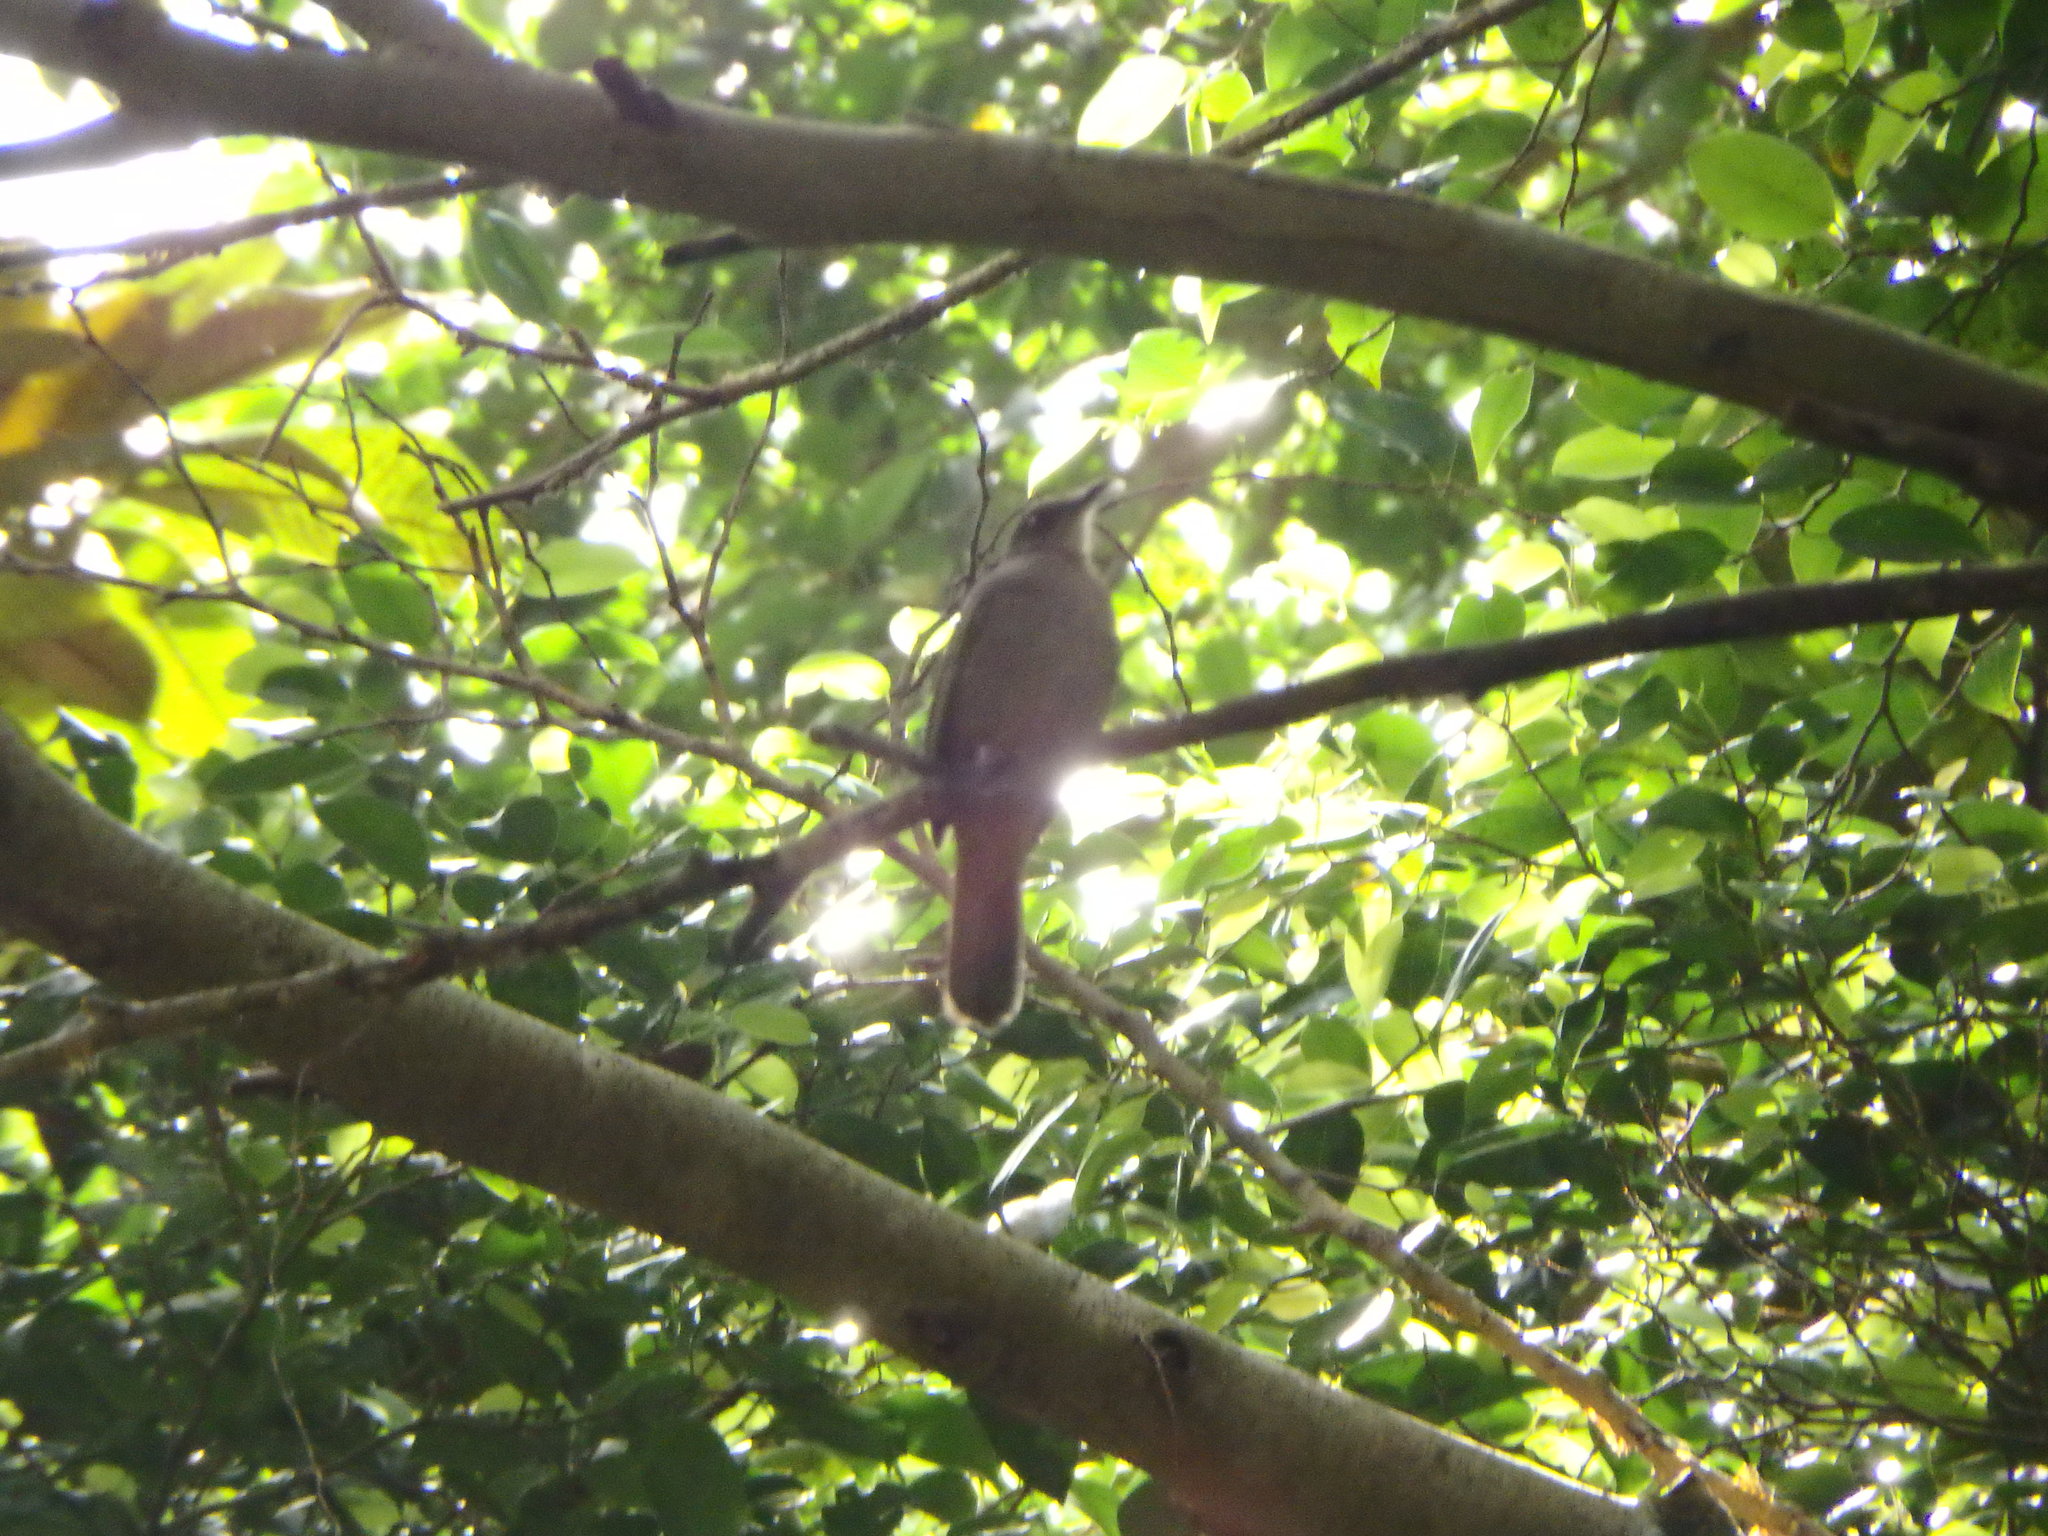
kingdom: Animalia
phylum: Chordata
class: Aves
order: Passeriformes
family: Pycnonotidae
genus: Pycnonotus
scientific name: Pycnonotus plumosus
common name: Olive-winged bulbul
